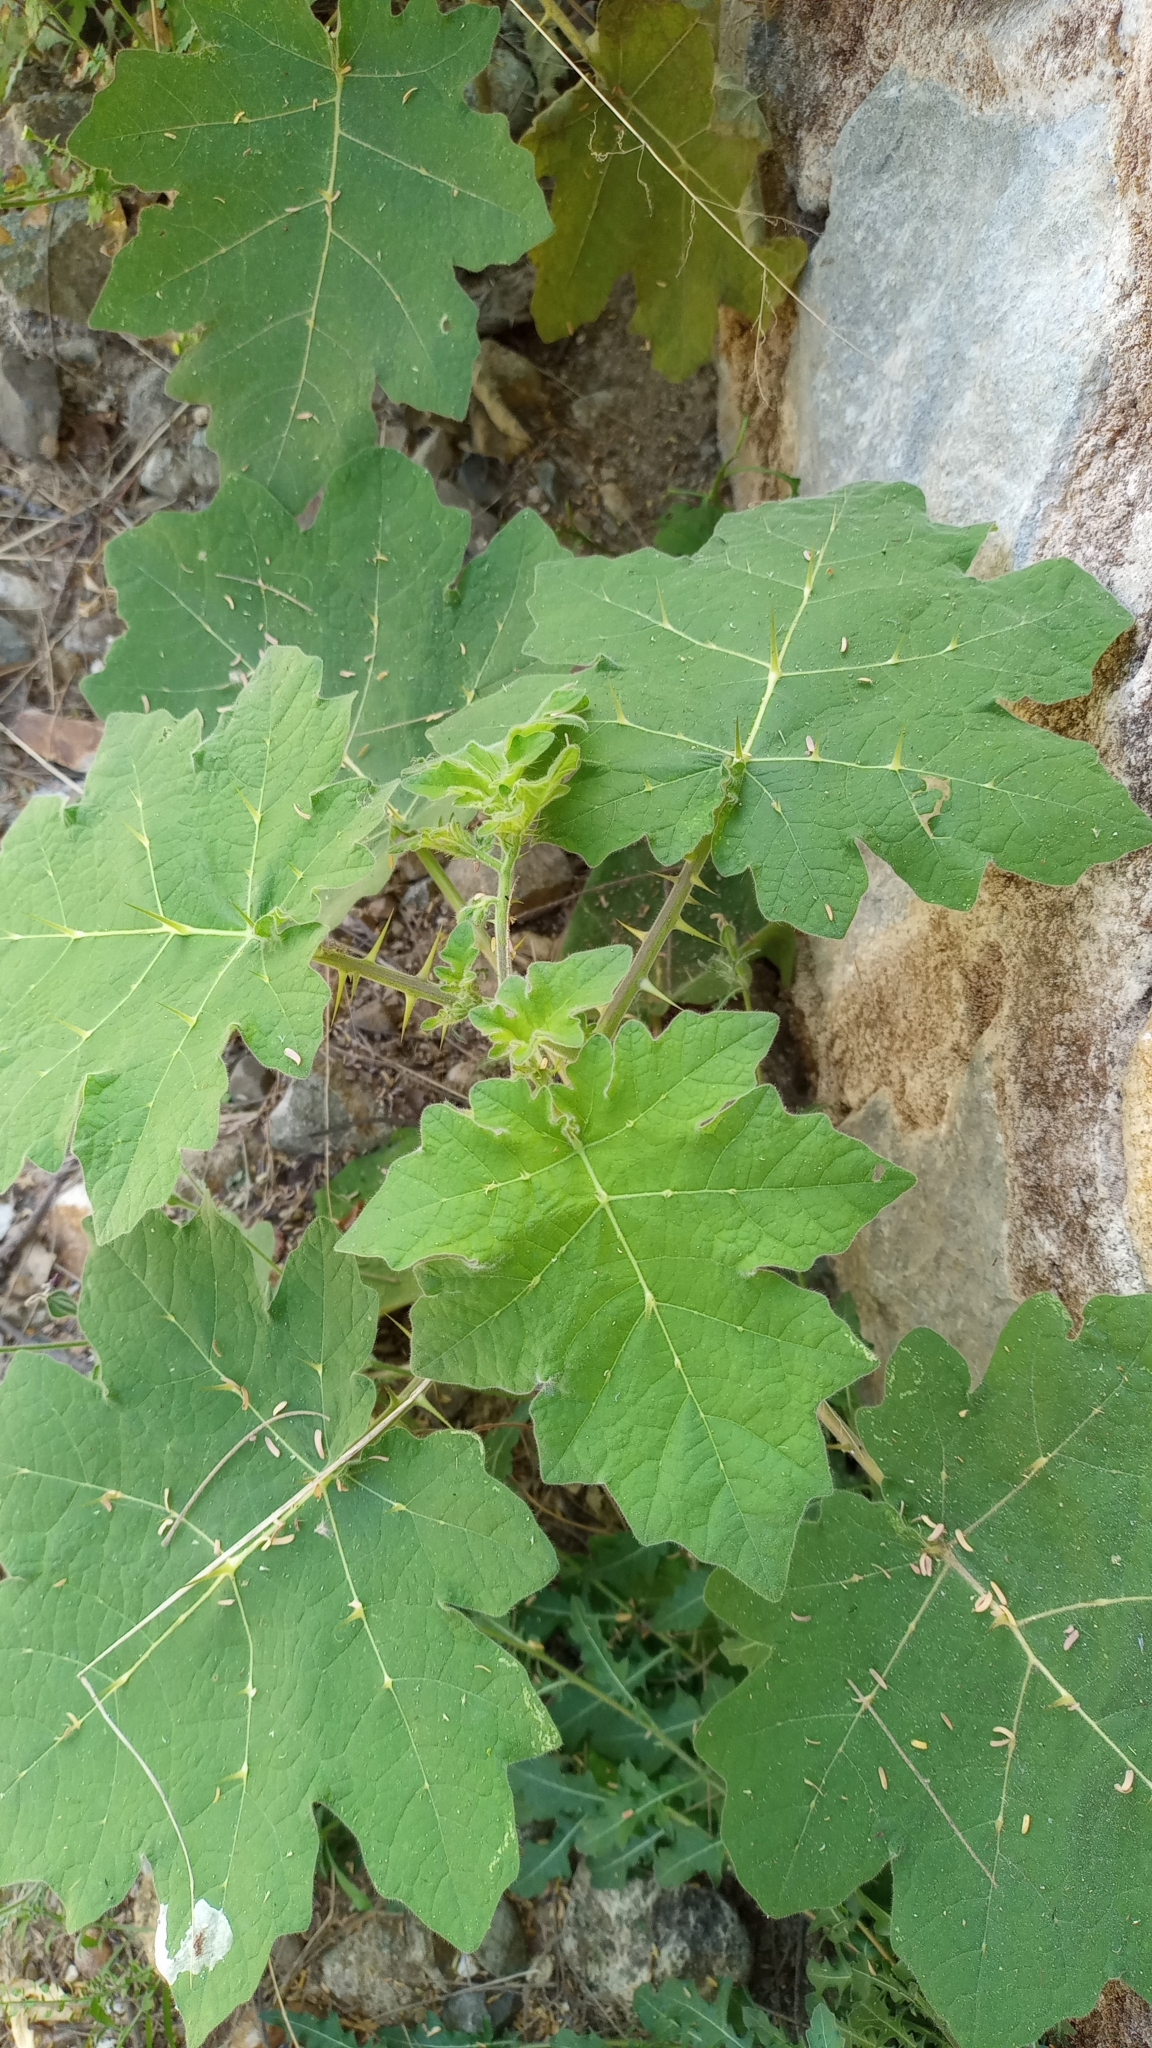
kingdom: Plantae
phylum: Tracheophyta
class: Magnoliopsida
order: Solanales
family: Solanaceae
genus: Solanum
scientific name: Solanum viarum
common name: Tropical soda apple
